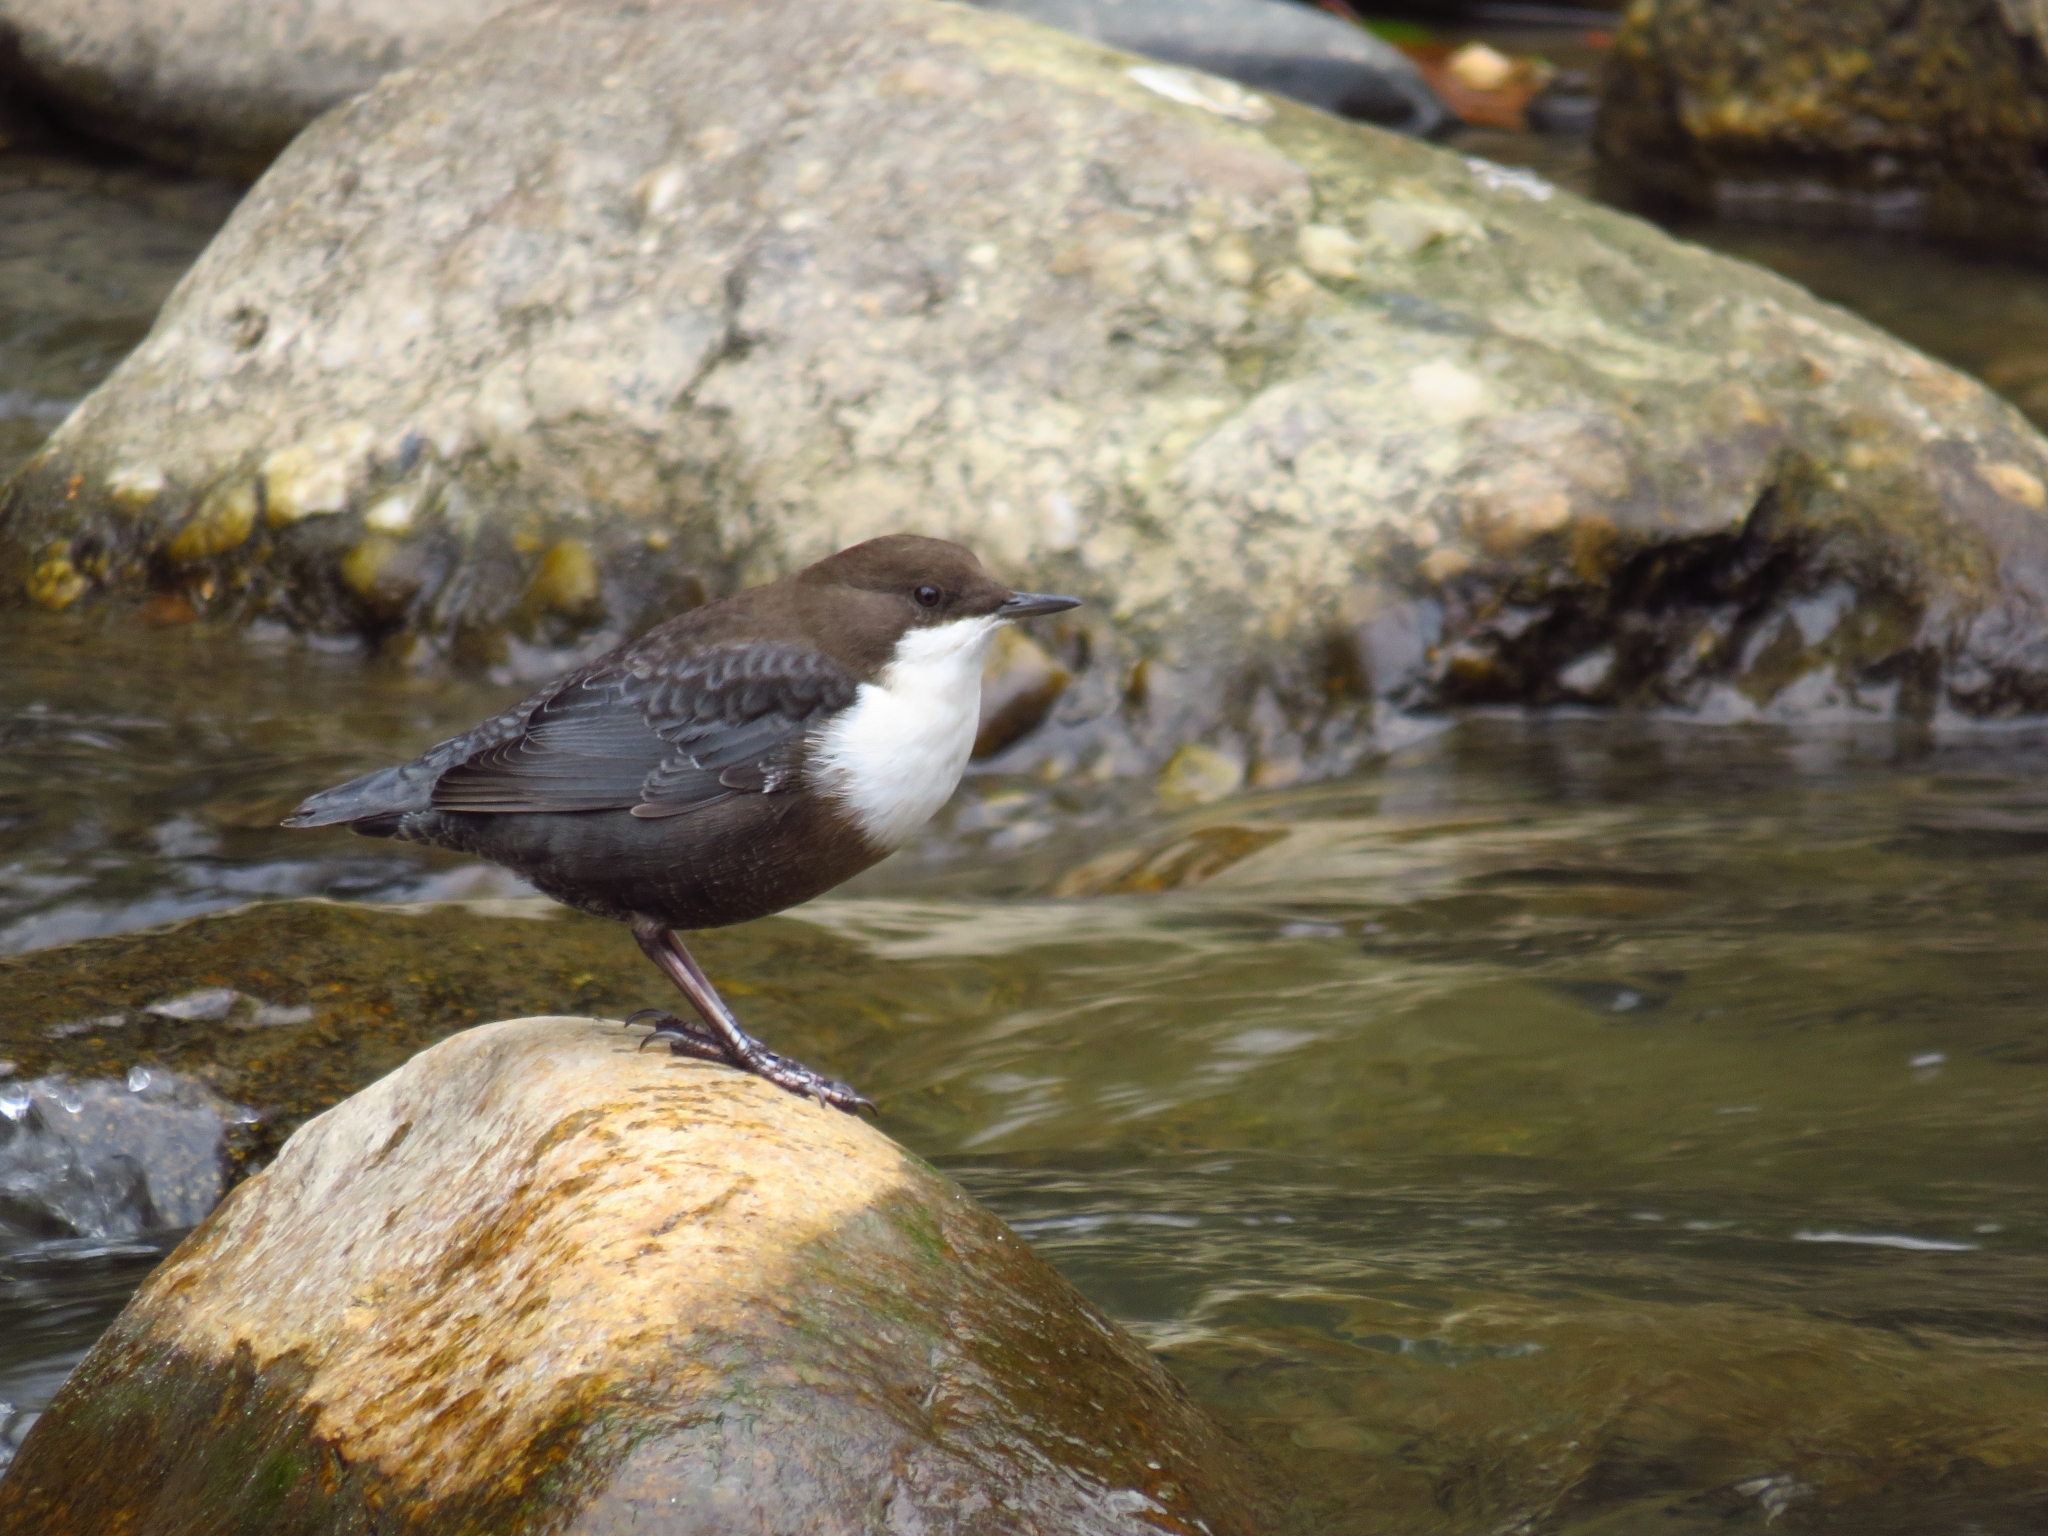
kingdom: Animalia
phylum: Chordata
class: Aves
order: Passeriformes
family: Cinclidae
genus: Cinclus
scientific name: Cinclus cinclus
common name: White-throated dipper
